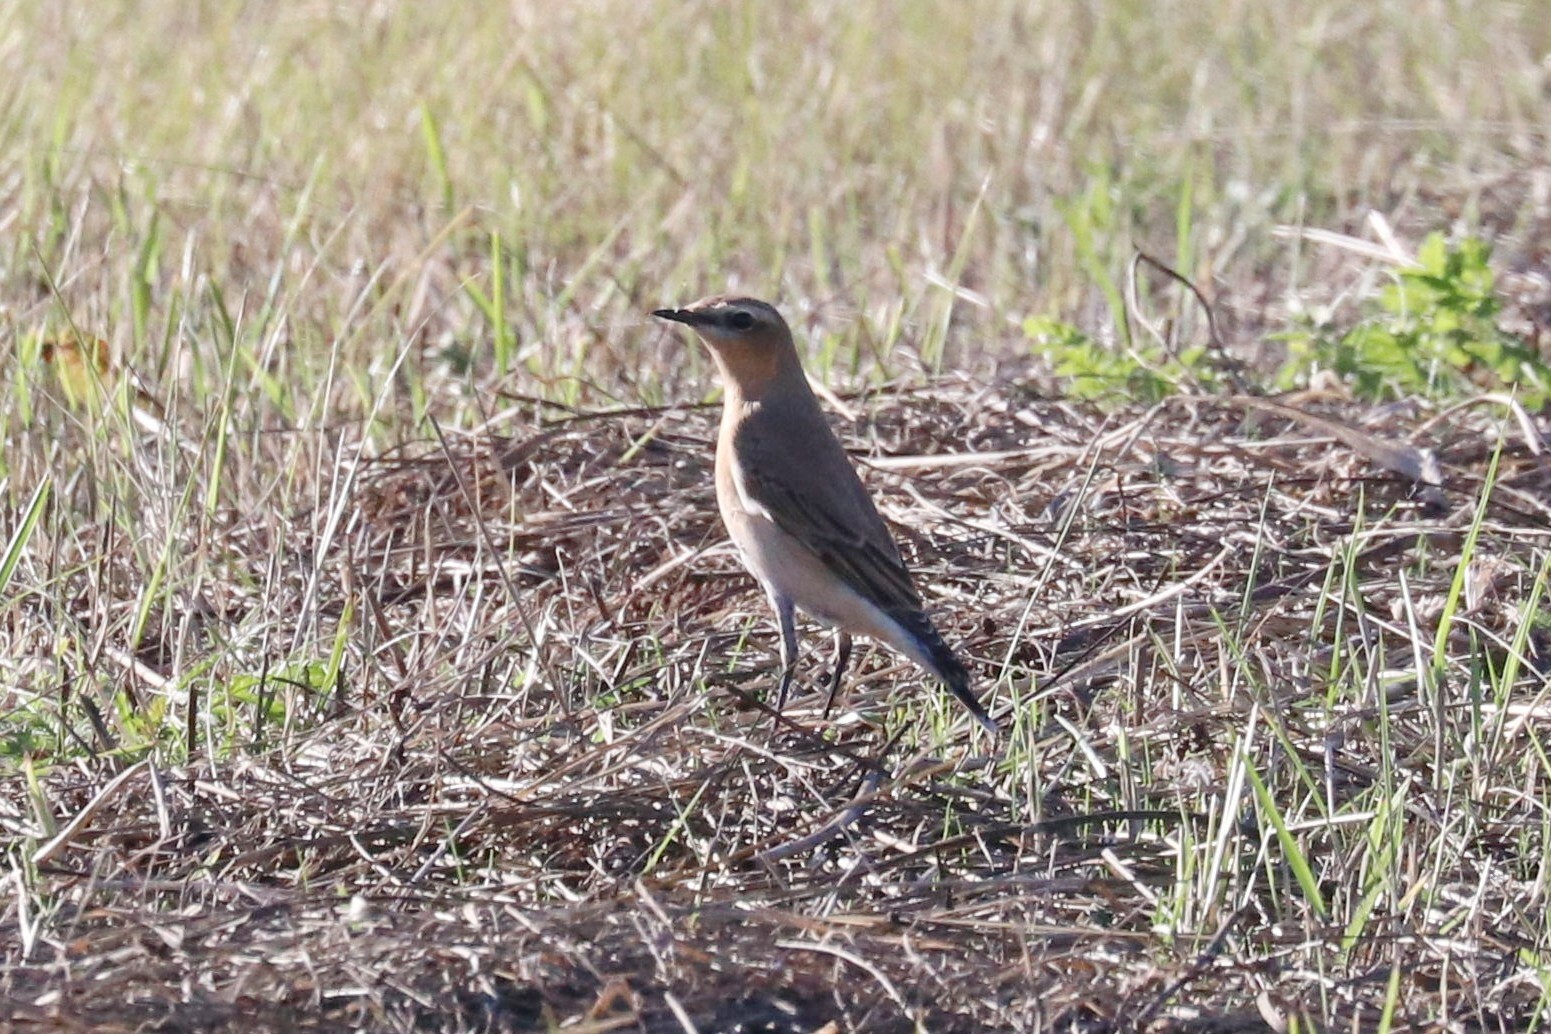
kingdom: Animalia
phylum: Chordata
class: Aves
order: Passeriformes
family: Muscicapidae
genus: Oenanthe
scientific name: Oenanthe oenanthe
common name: Northern wheatear
